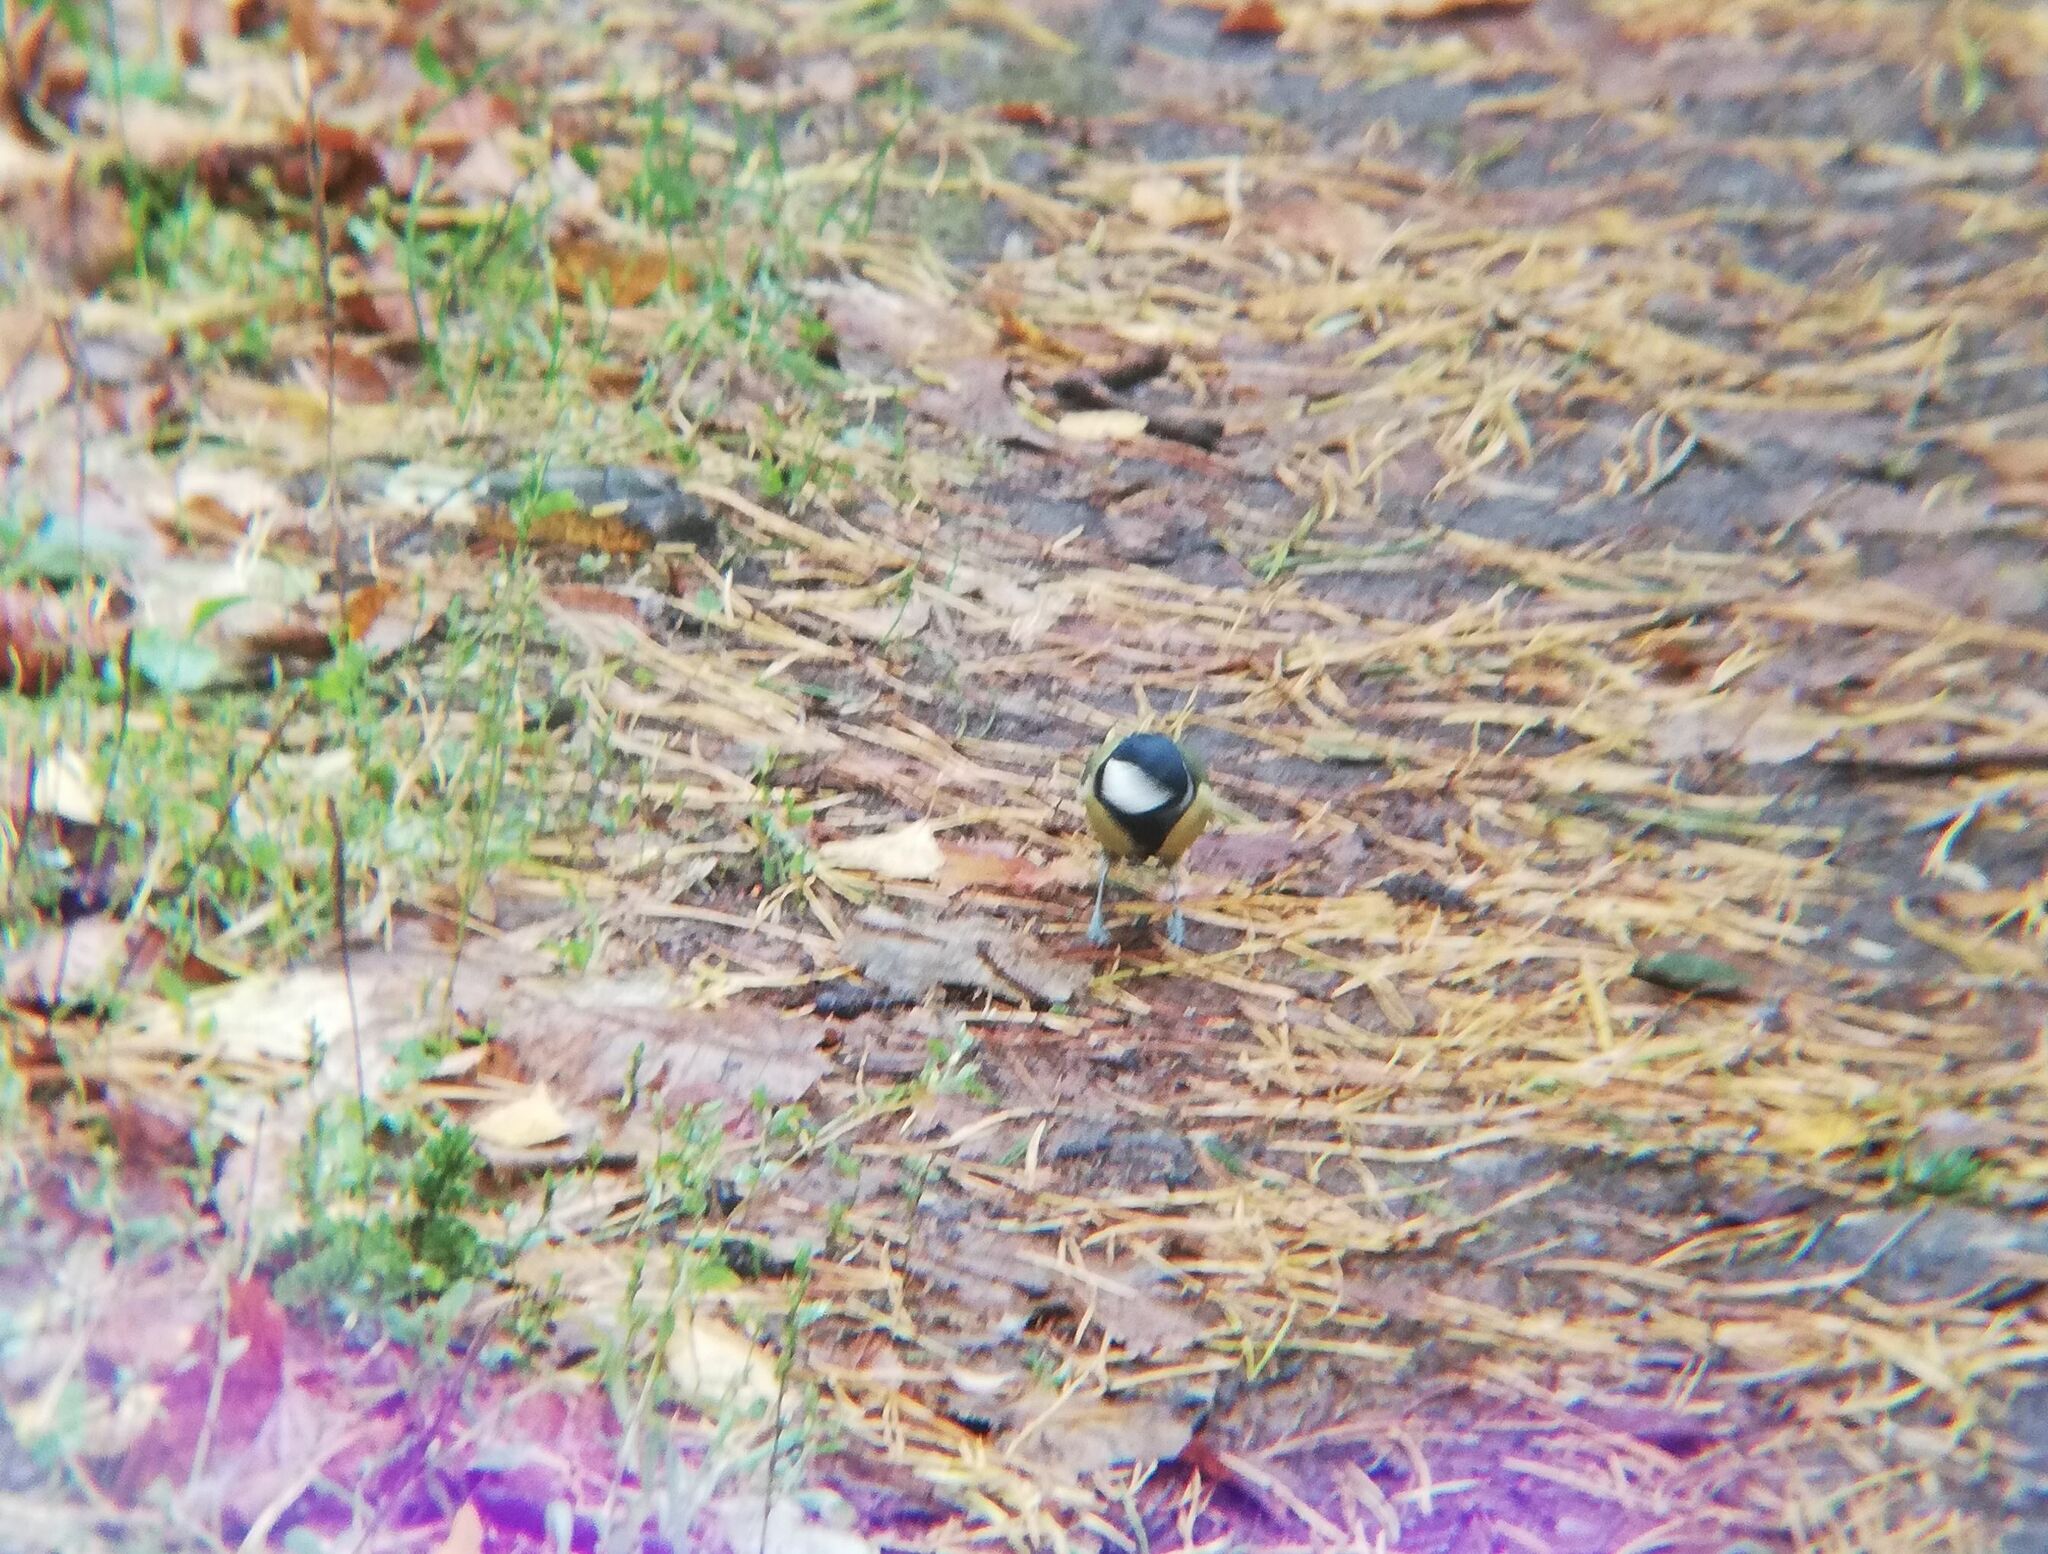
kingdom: Animalia
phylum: Chordata
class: Aves
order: Passeriformes
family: Paridae
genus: Parus
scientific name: Parus major
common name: Great tit
